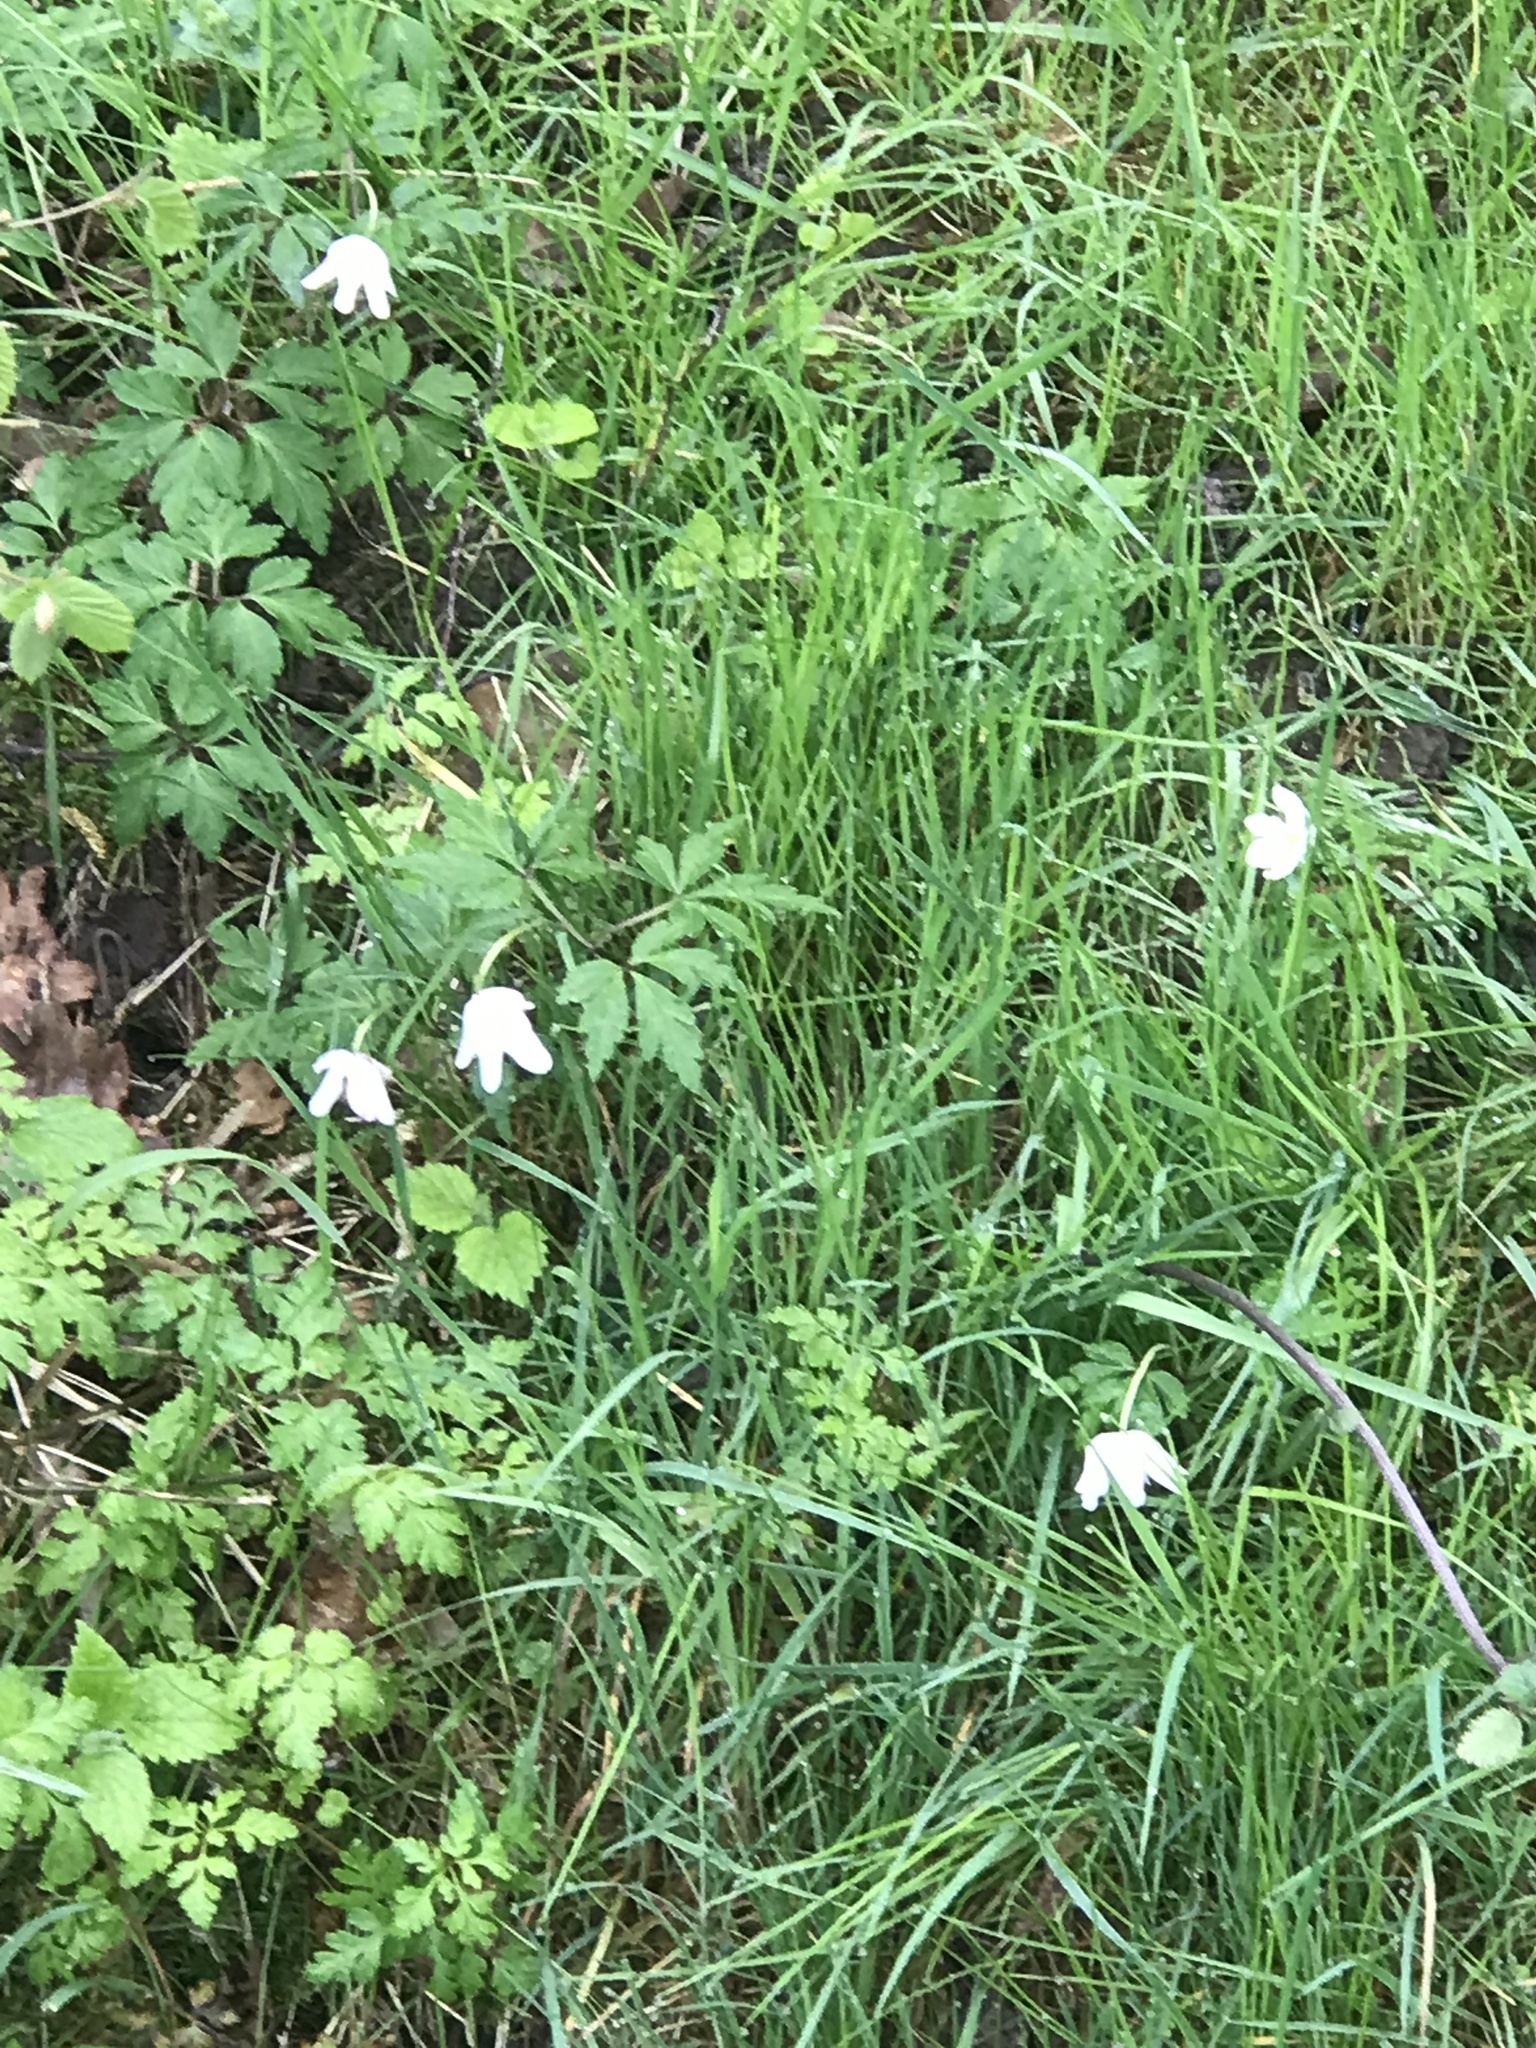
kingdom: Plantae
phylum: Tracheophyta
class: Magnoliopsida
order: Ranunculales
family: Ranunculaceae
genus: Anemone
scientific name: Anemone nemorosa
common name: Wood anemone
